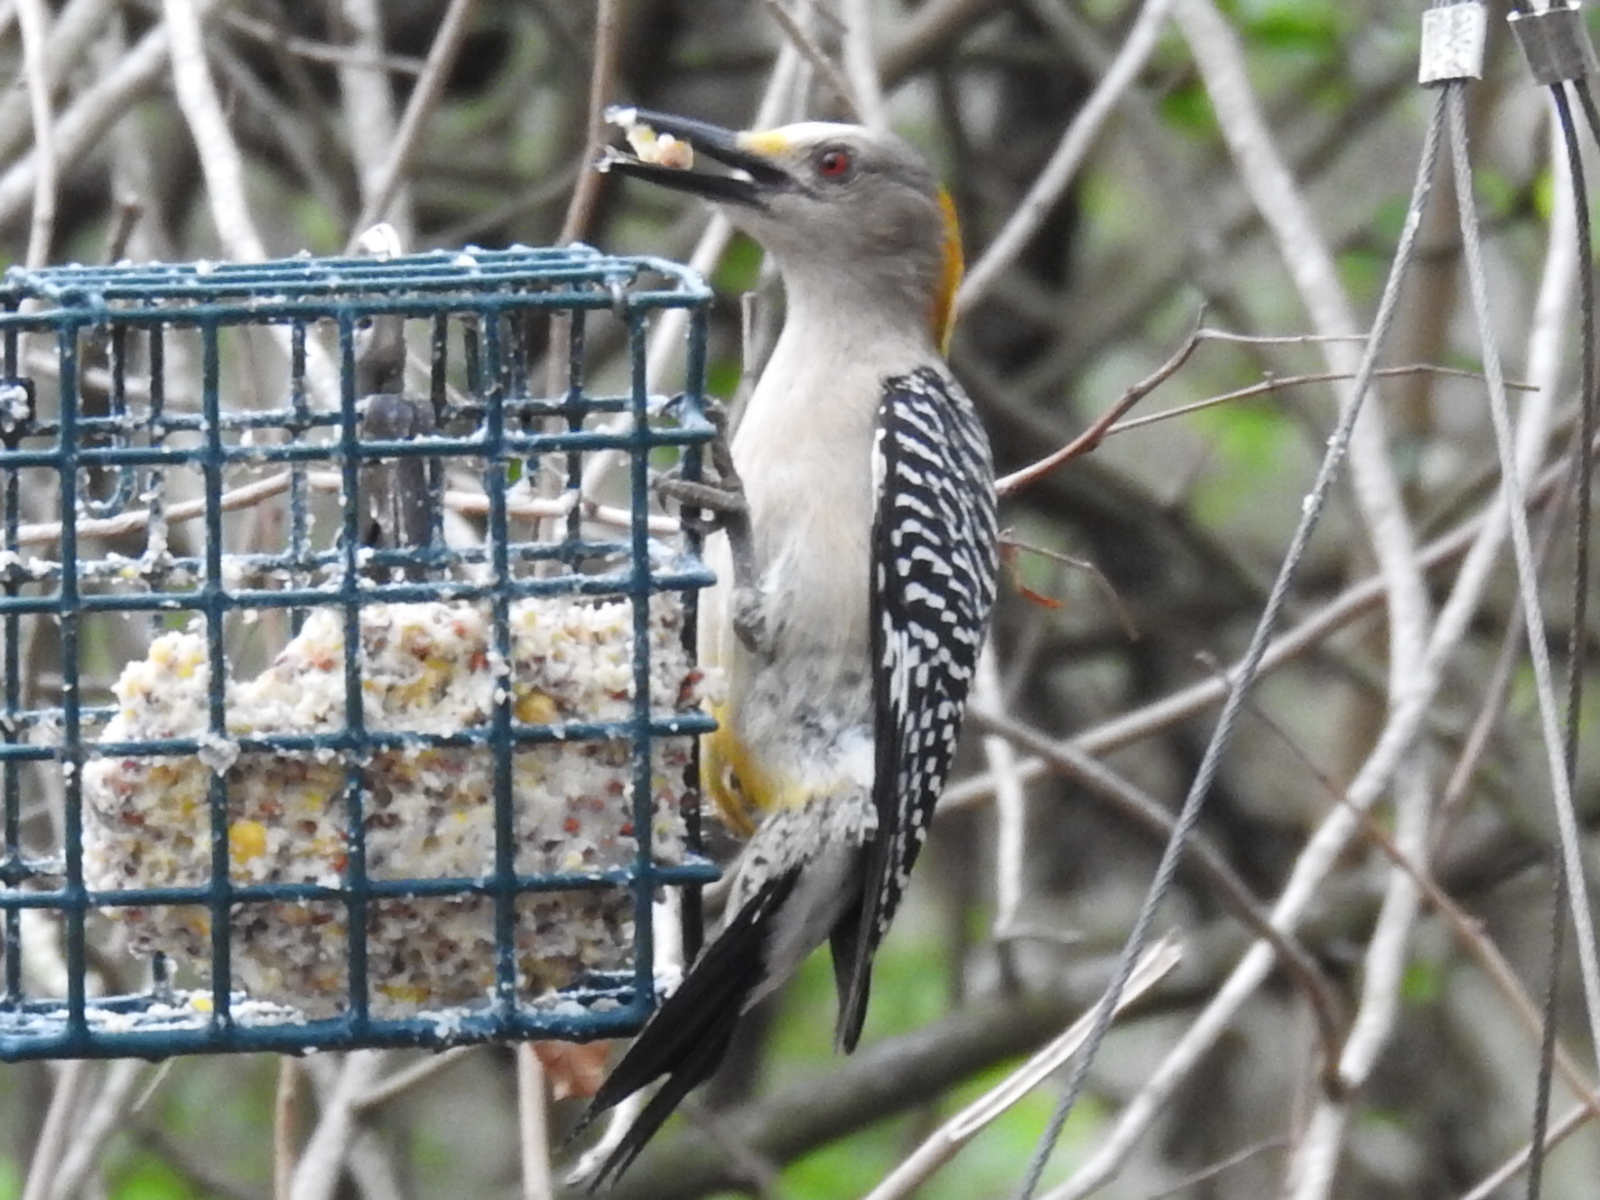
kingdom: Animalia
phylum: Chordata
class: Aves
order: Piciformes
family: Picidae
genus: Melanerpes
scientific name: Melanerpes aurifrons
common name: Golden-fronted woodpecker
